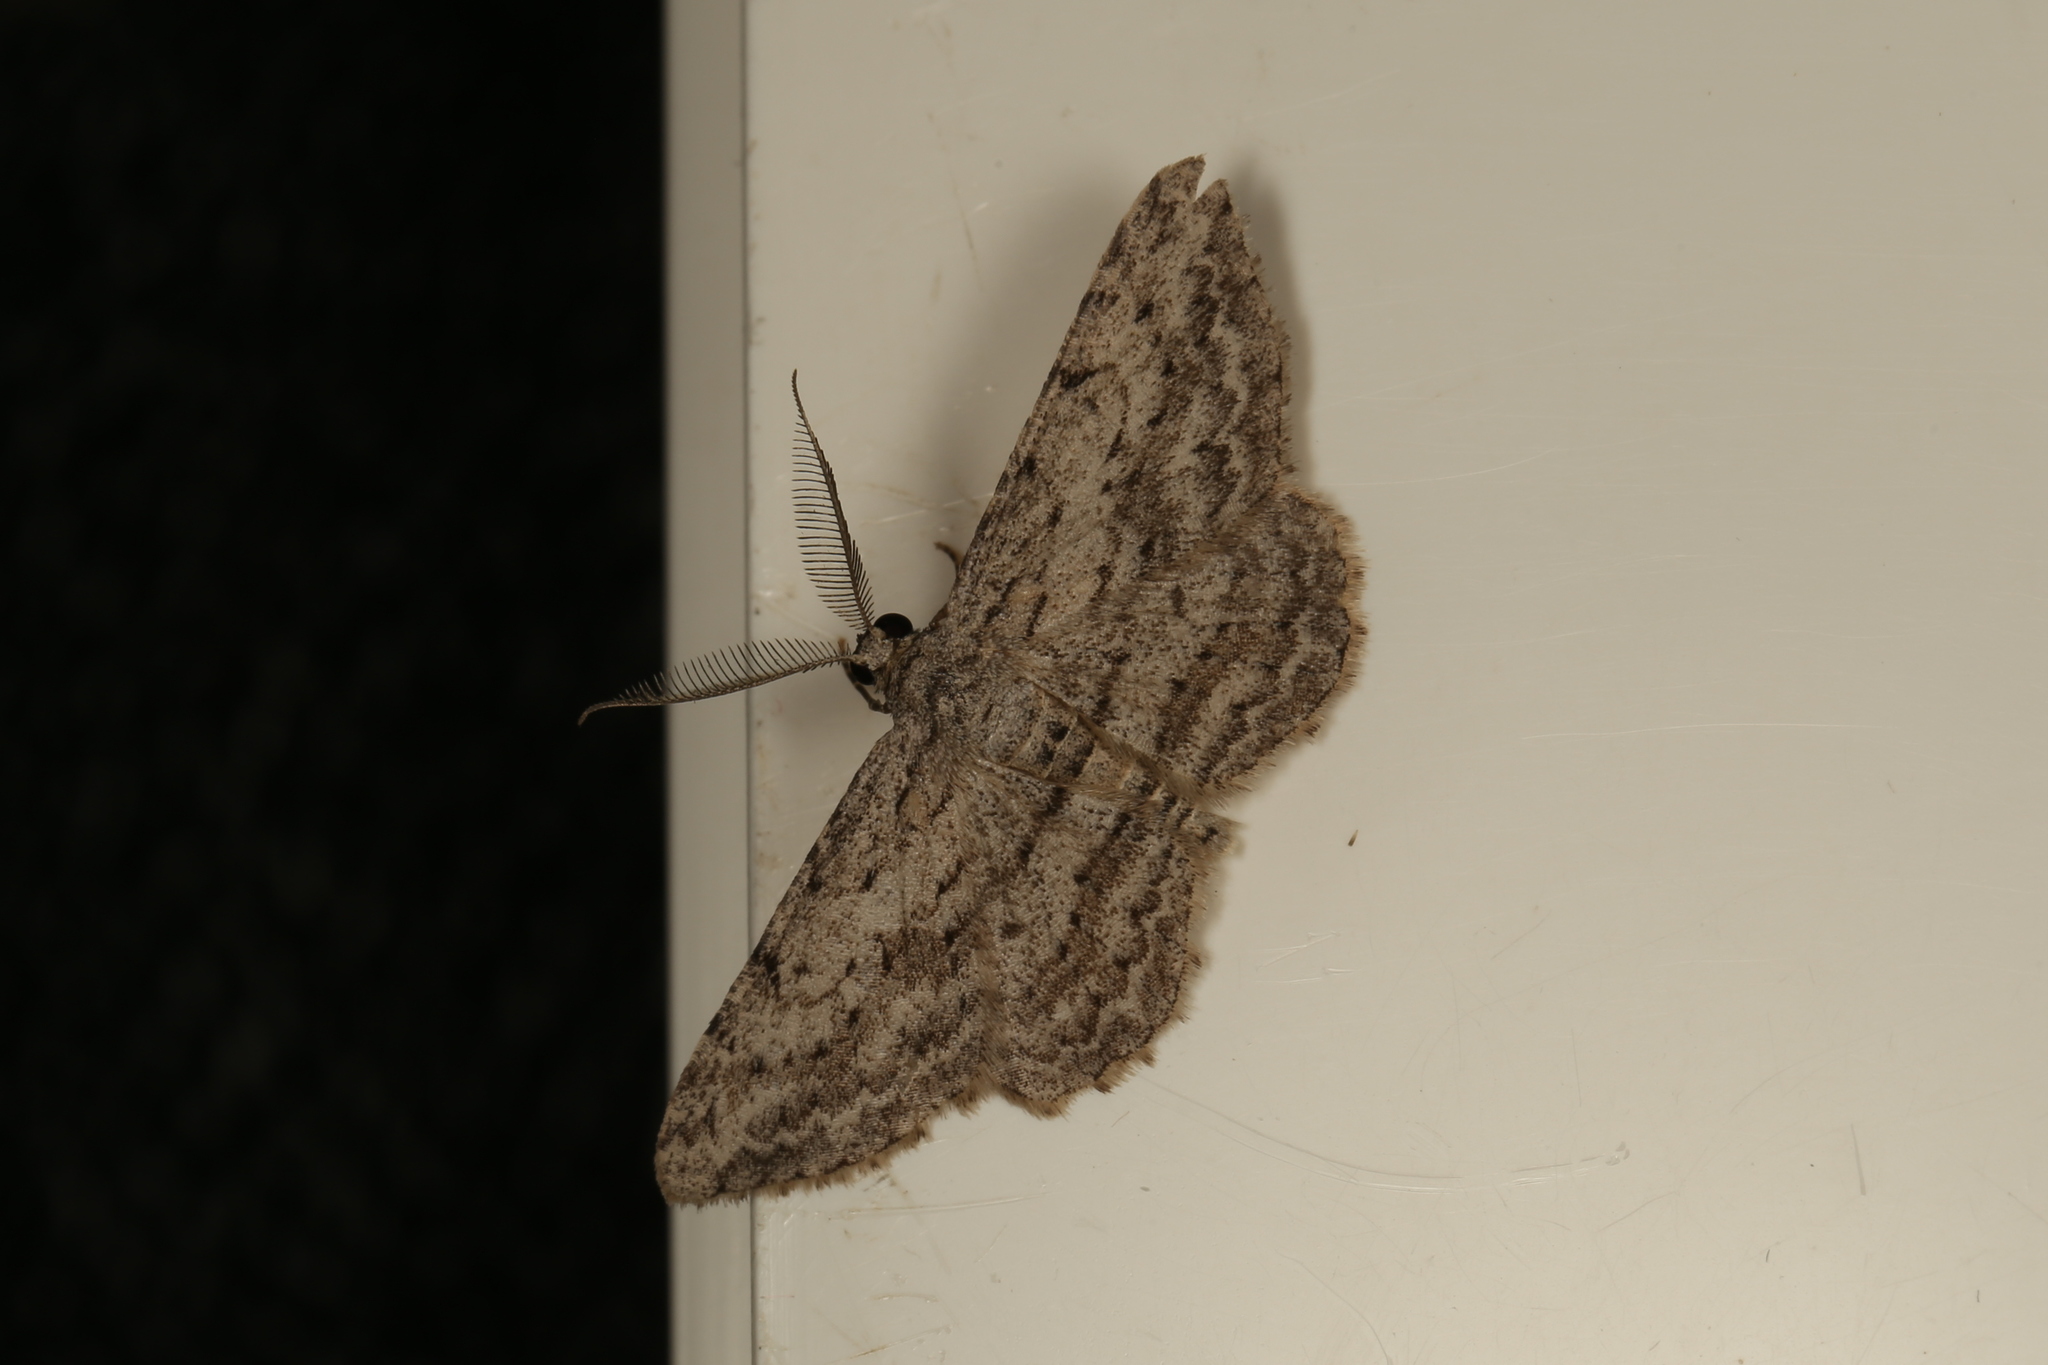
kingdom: Animalia
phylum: Arthropoda
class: Insecta
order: Lepidoptera
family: Geometridae
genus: Didymoctenia
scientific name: Didymoctenia exsuperata
